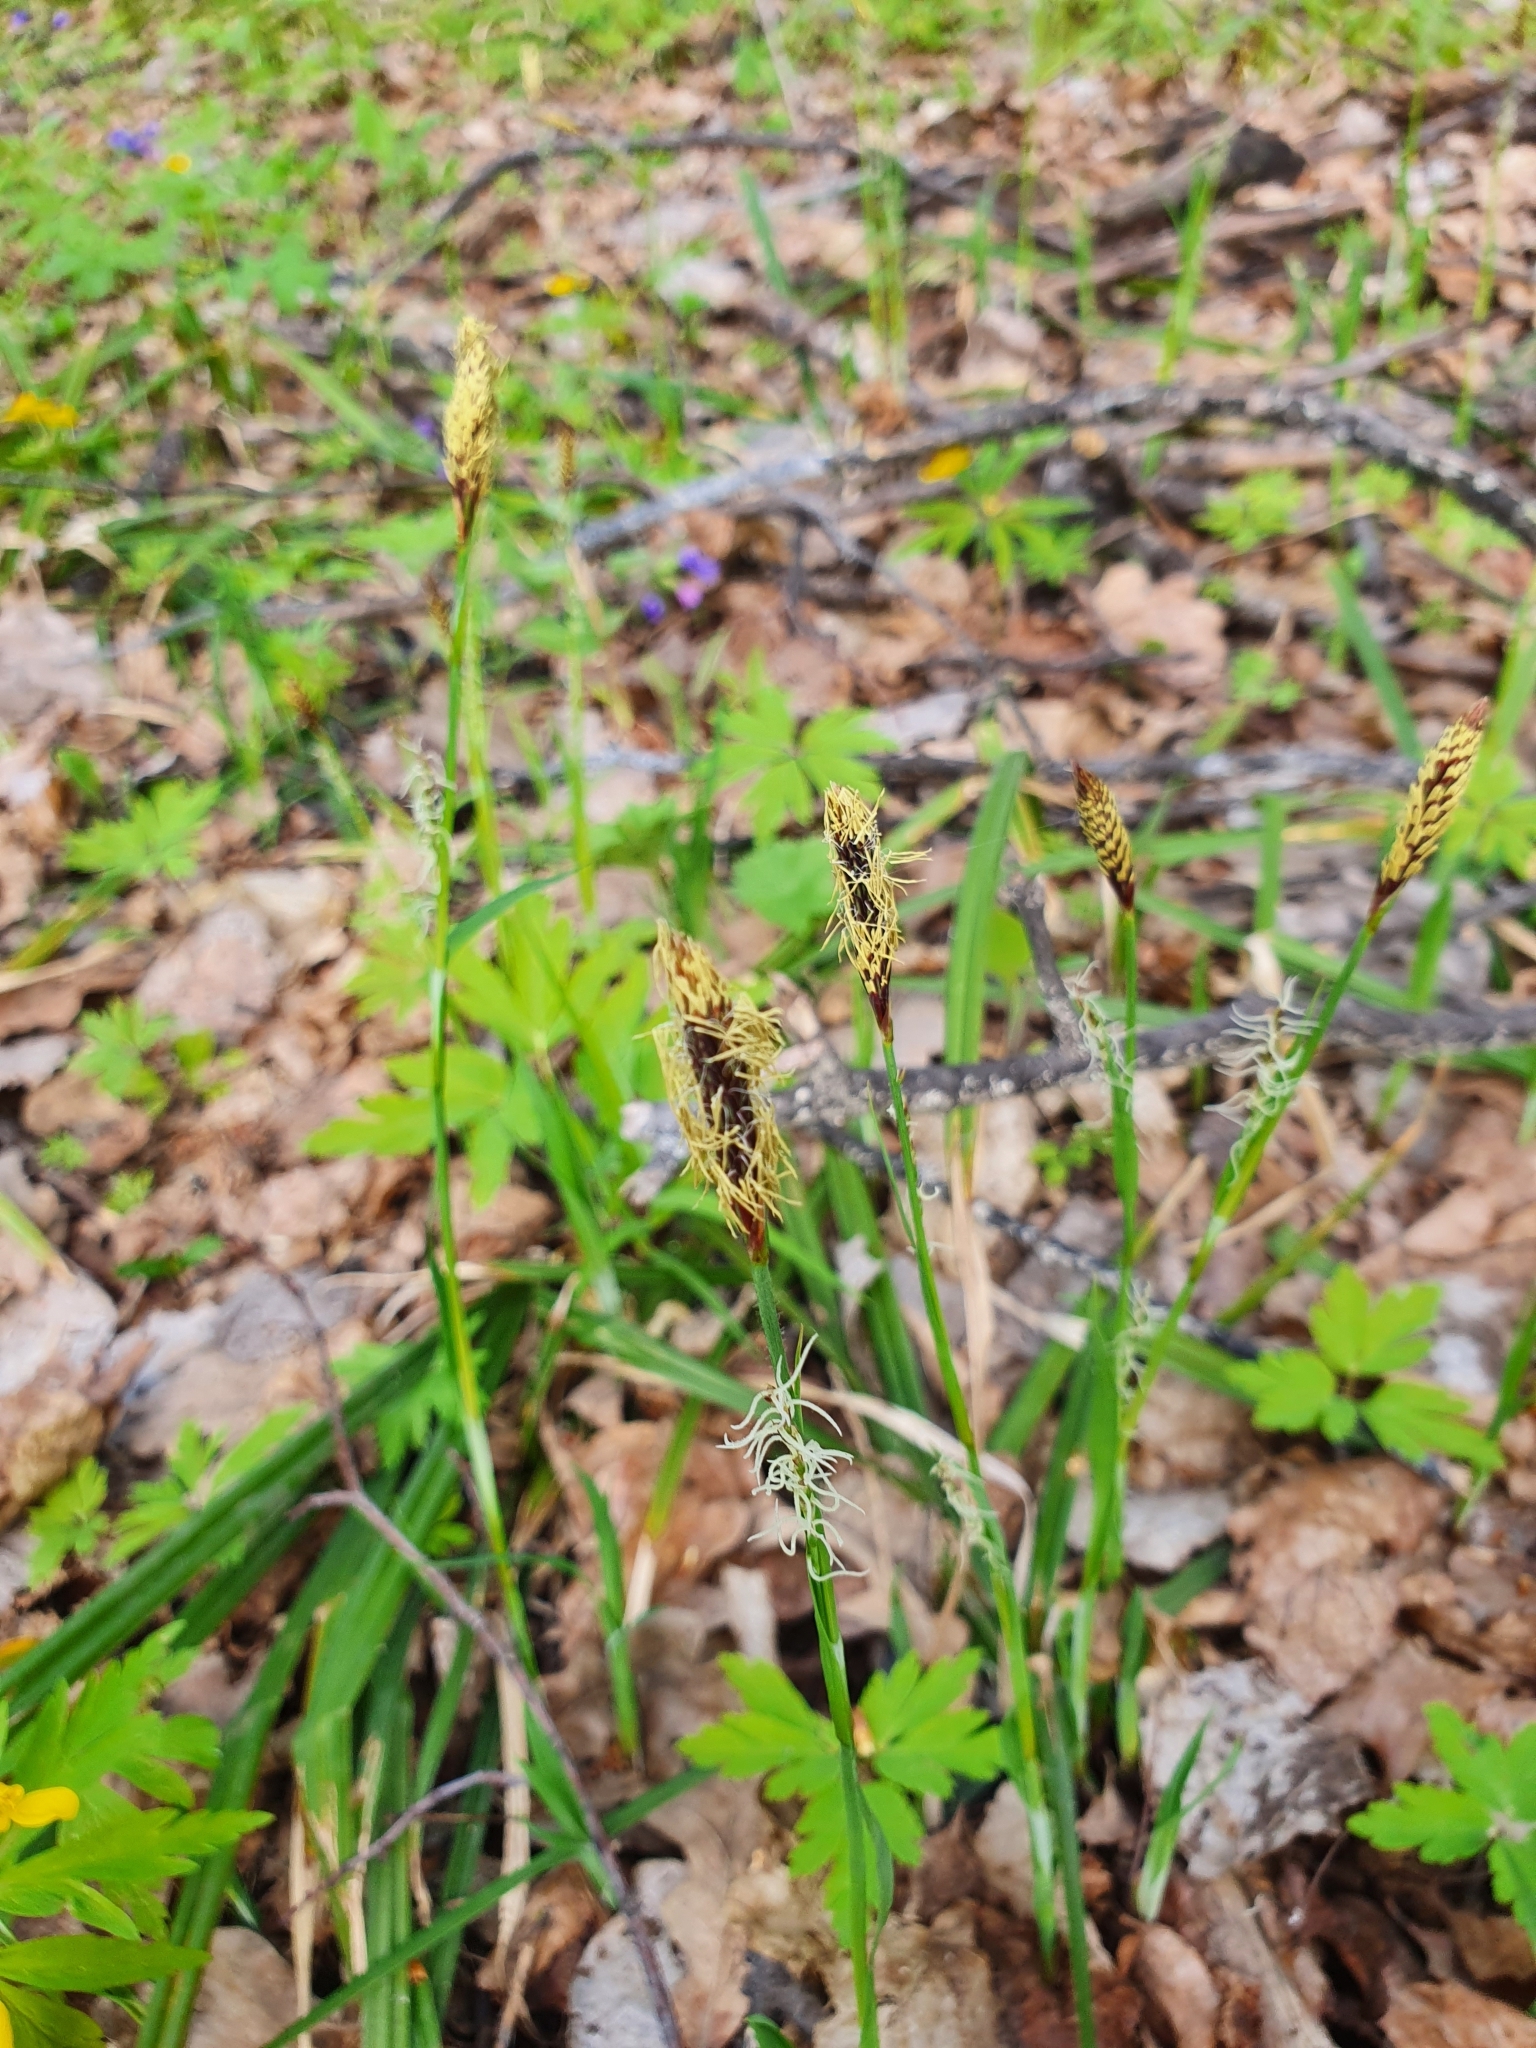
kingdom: Plantae
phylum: Tracheophyta
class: Liliopsida
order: Poales
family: Cyperaceae
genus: Carex
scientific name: Carex pilosa
